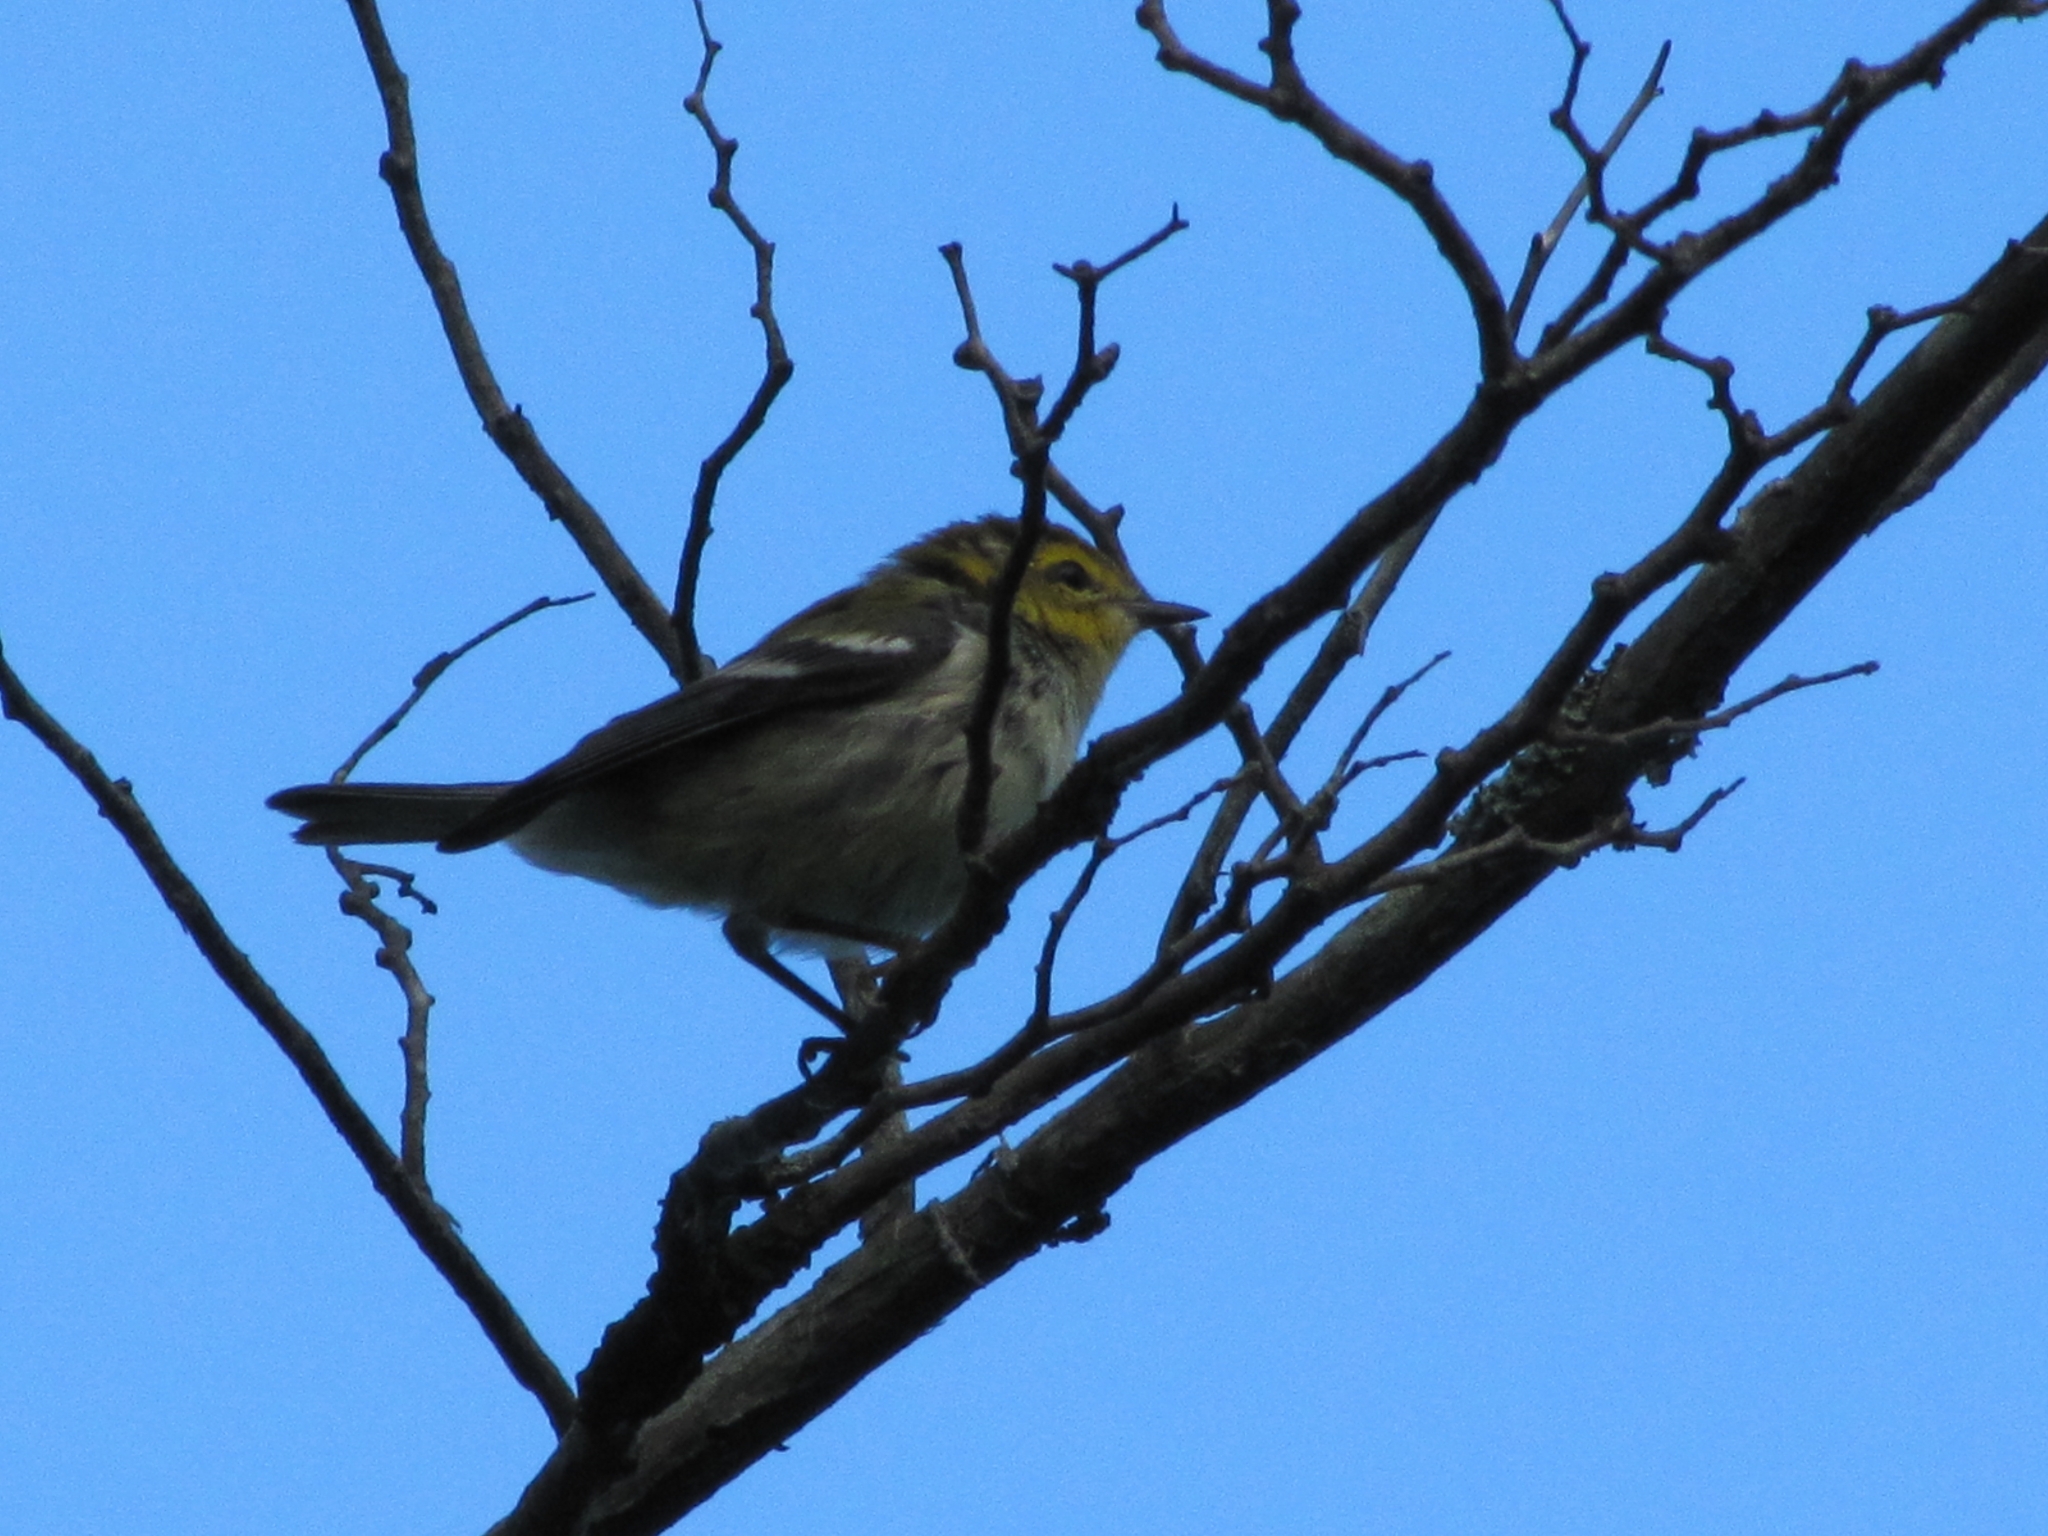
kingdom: Animalia
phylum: Chordata
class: Aves
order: Passeriformes
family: Parulidae
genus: Setophaga
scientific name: Setophaga virens
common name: Black-throated green warbler
